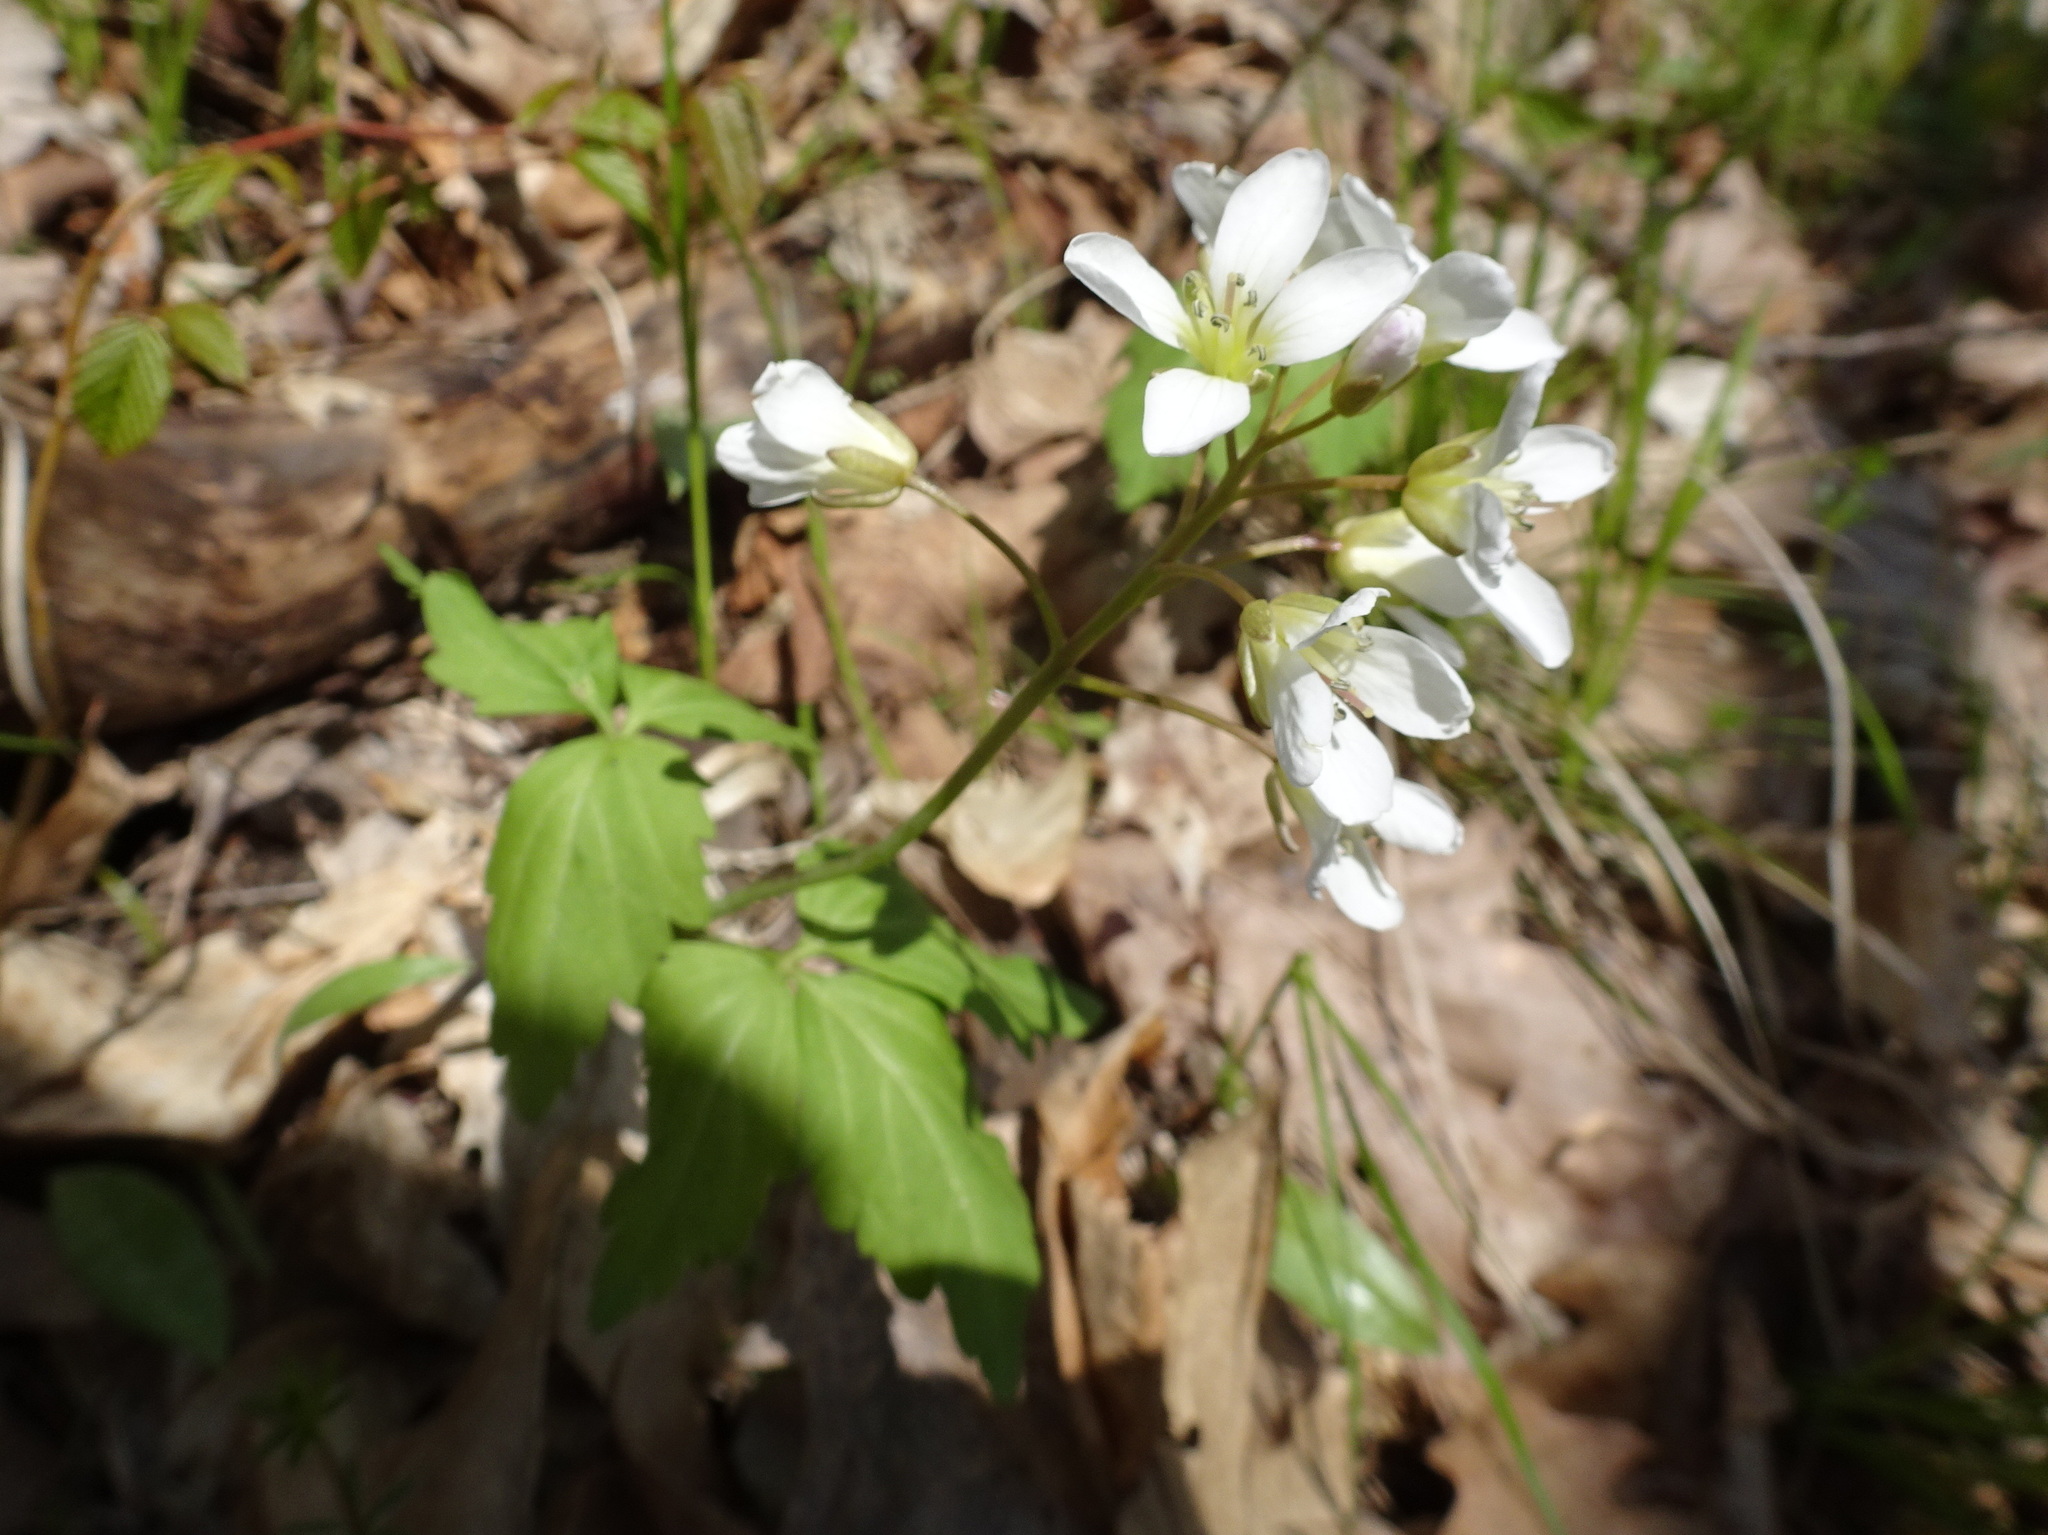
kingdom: Plantae
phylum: Tracheophyta
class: Magnoliopsida
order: Brassicales
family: Brassicaceae
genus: Cardamine
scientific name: Cardamine diphylla
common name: Broad-leaved toothwort
